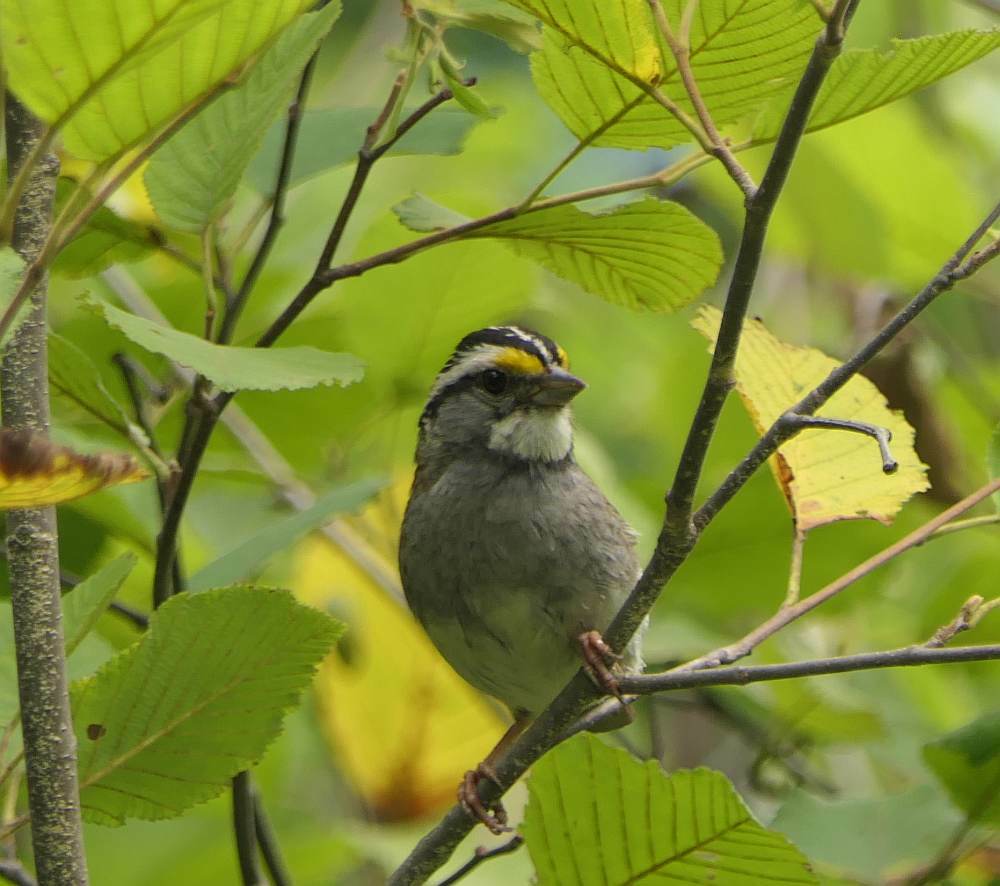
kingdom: Animalia
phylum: Chordata
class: Aves
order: Passeriformes
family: Passerellidae
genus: Zonotrichia
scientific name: Zonotrichia albicollis
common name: White-throated sparrow
